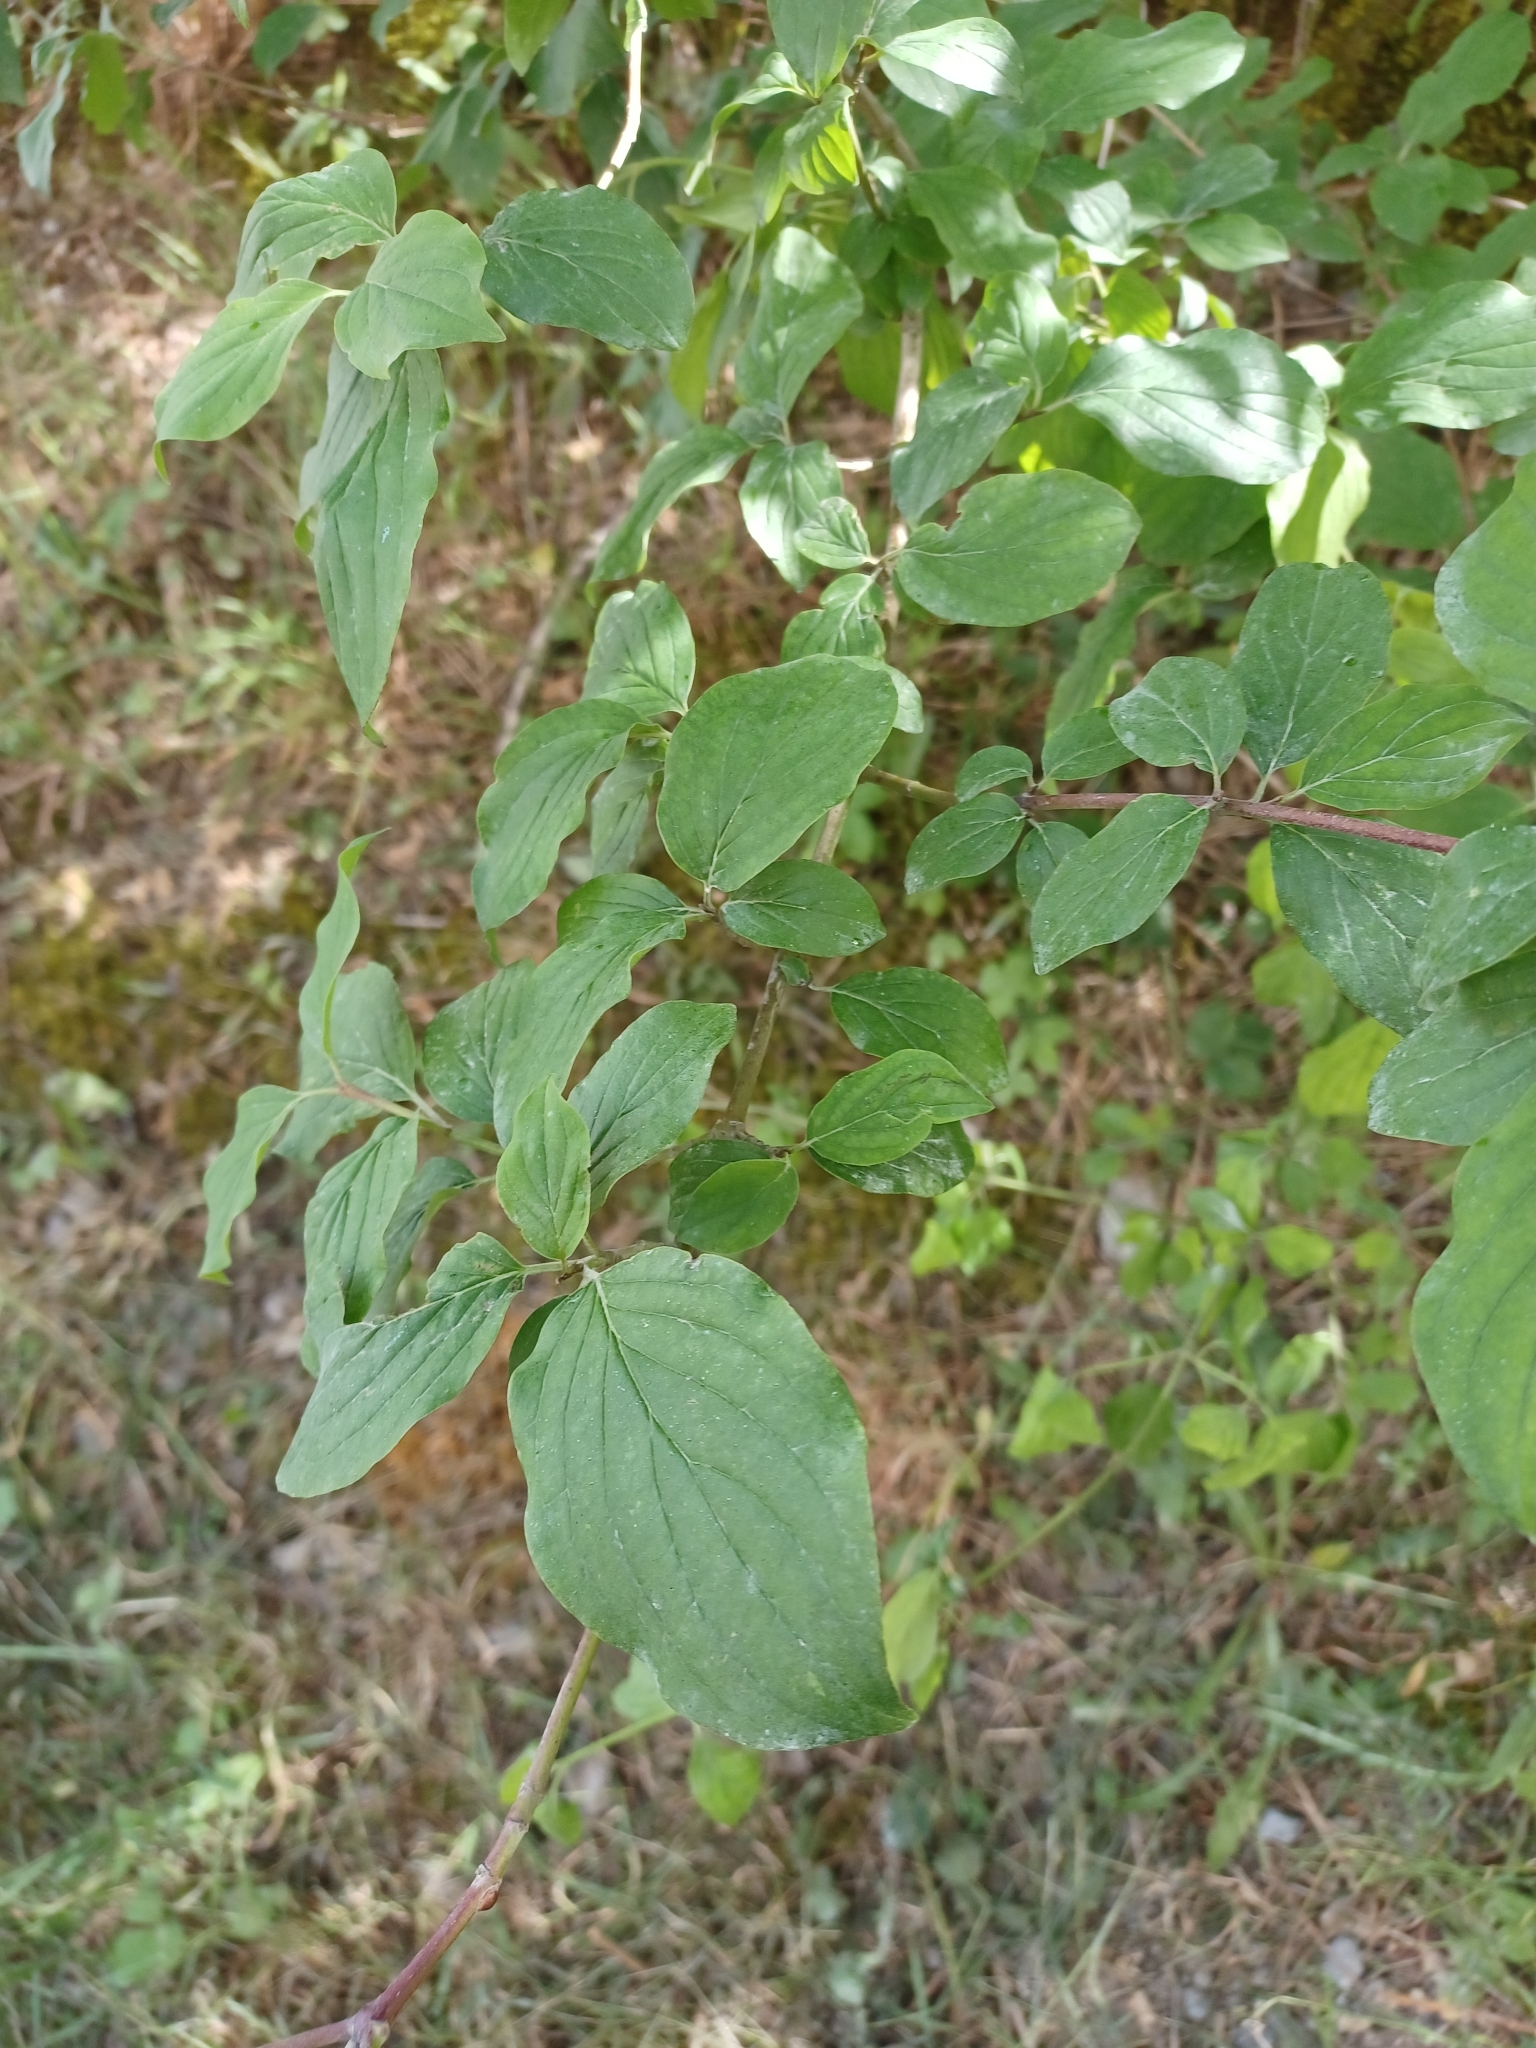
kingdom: Plantae
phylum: Tracheophyta
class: Magnoliopsida
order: Cornales
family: Cornaceae
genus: Cornus
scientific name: Cornus sanguinea
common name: Dogwood
